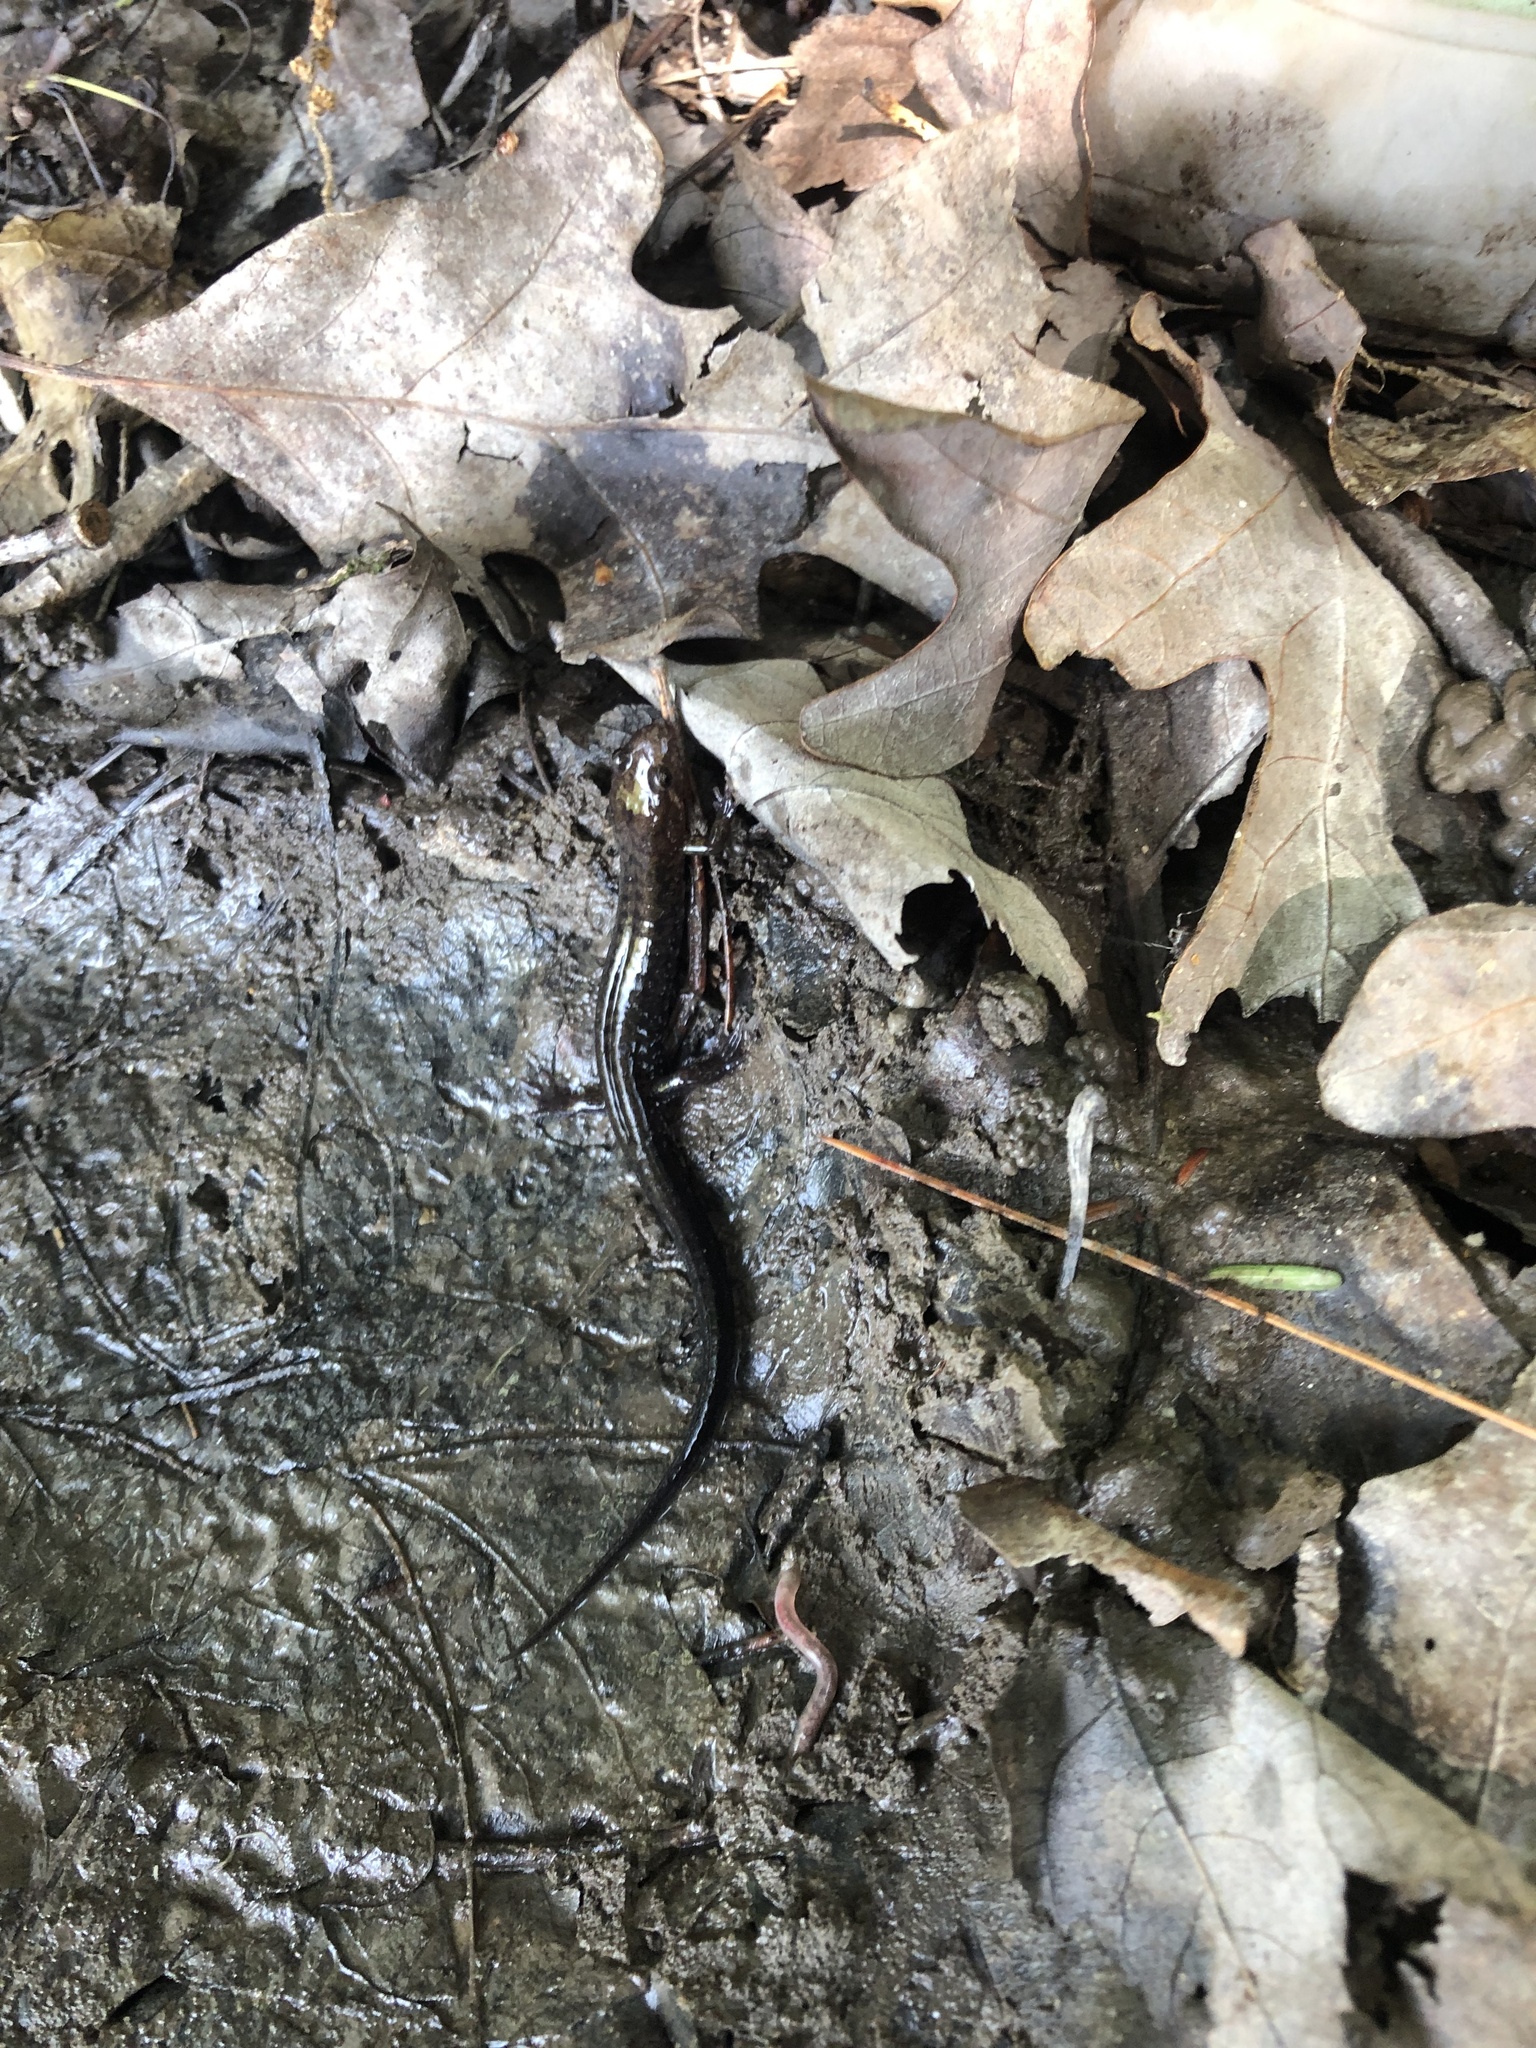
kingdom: Animalia
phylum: Chordata
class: Amphibia
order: Caudata
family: Plethodontidae
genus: Desmognathus
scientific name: Desmognathus ochrophaeus
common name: Allegheny mountain dusky salamander
